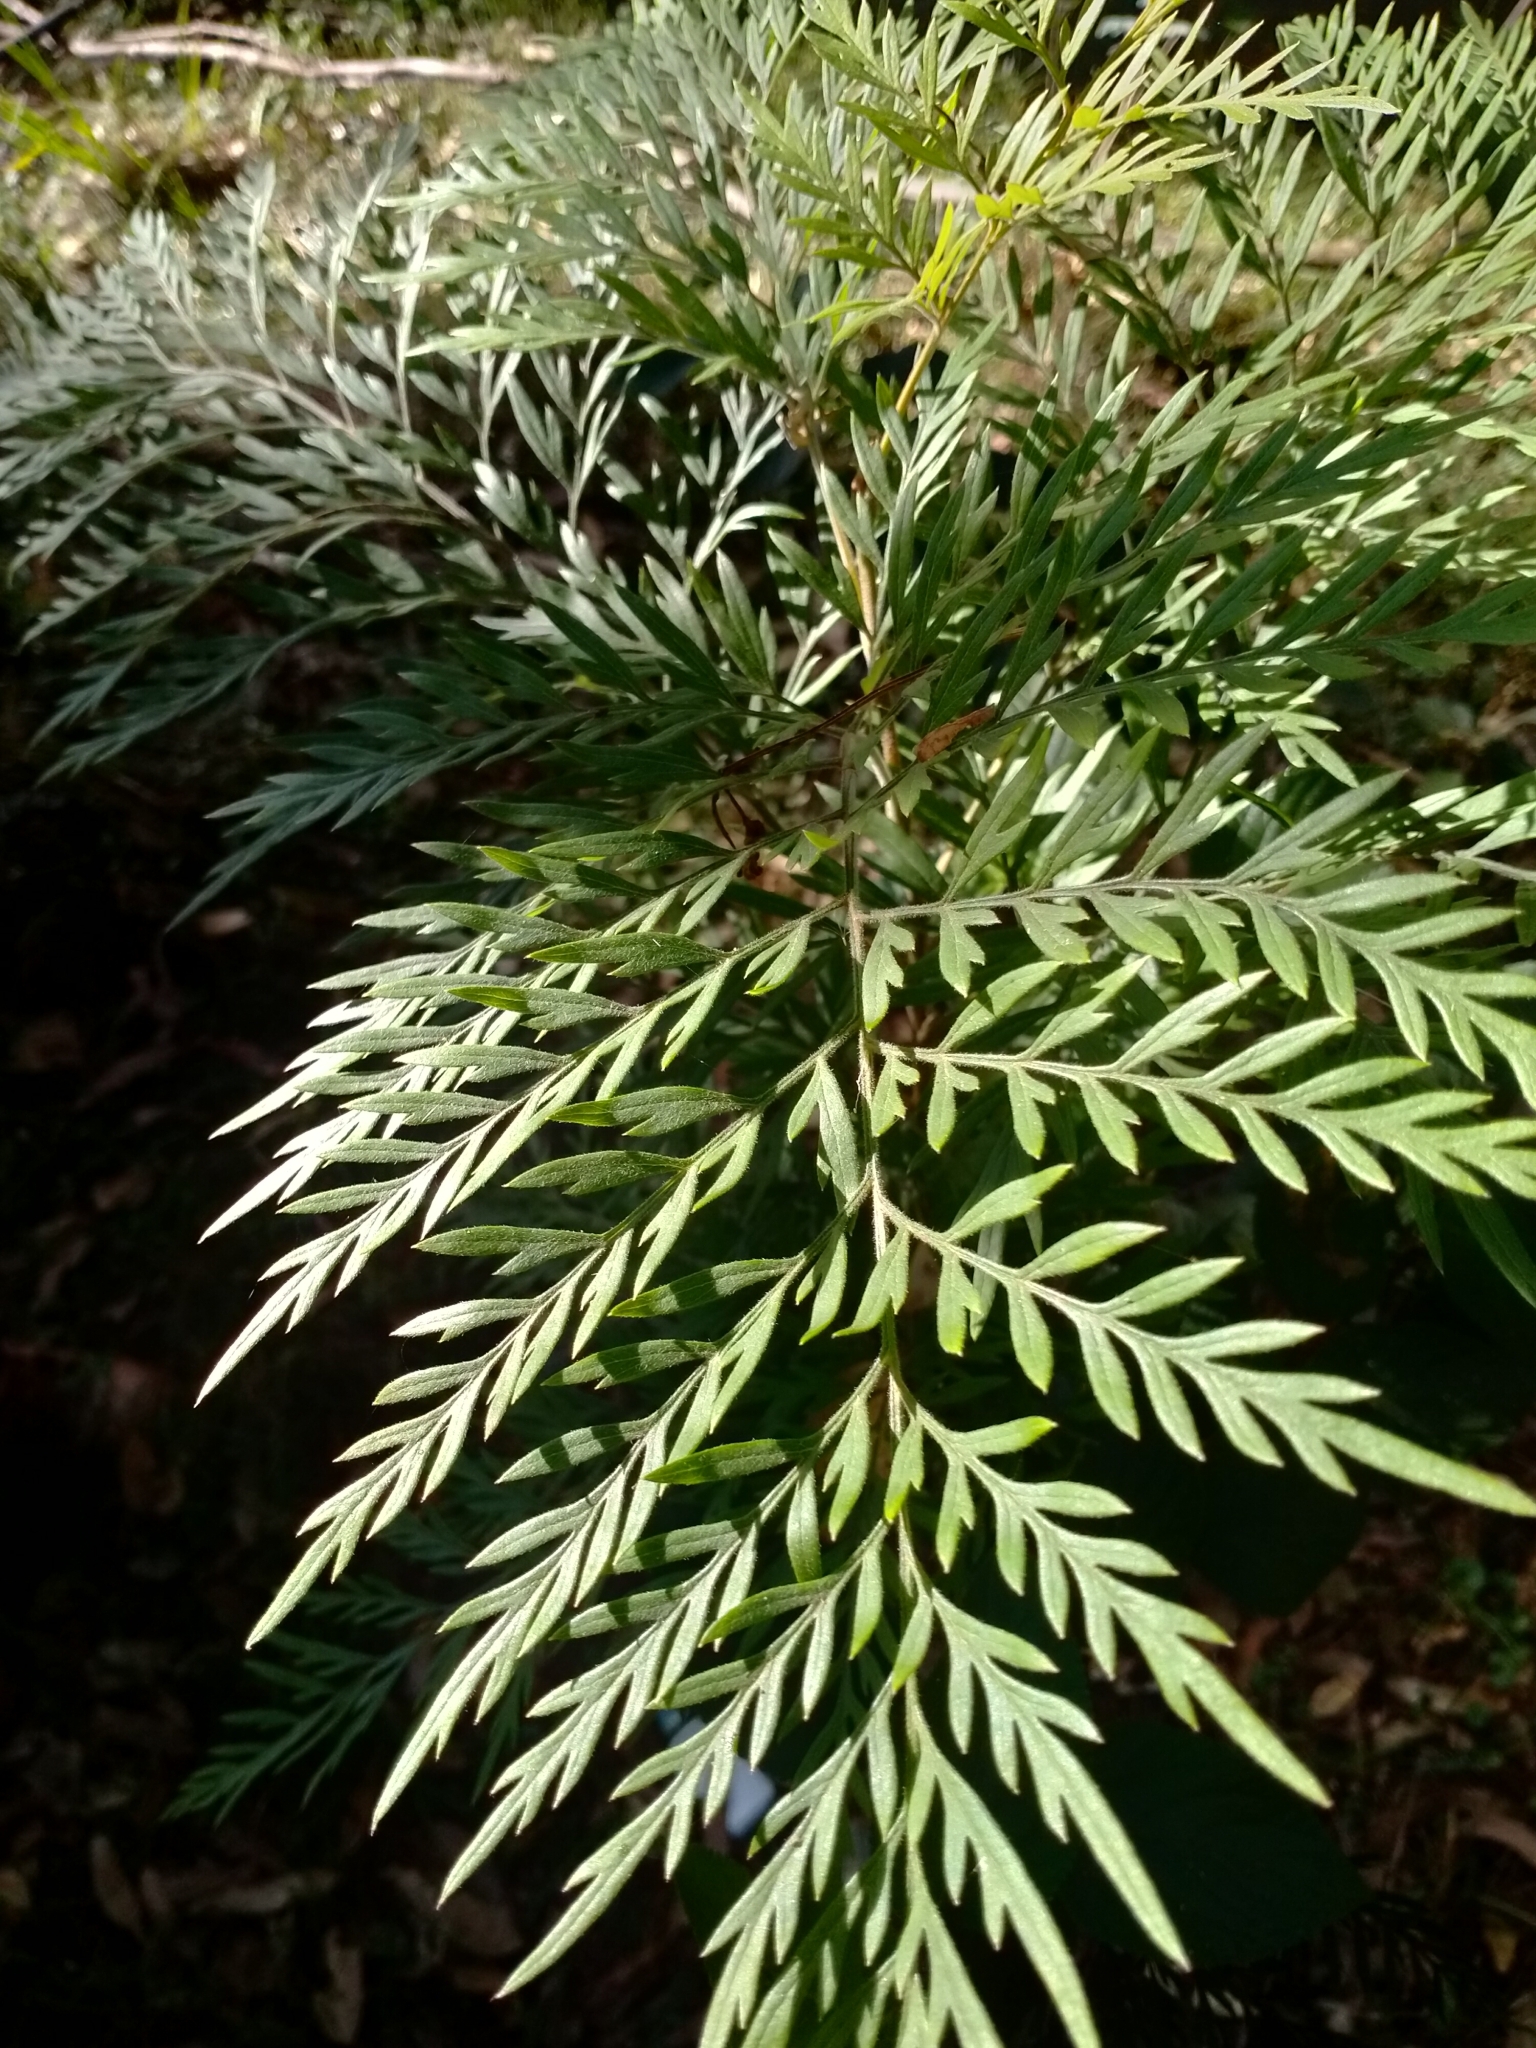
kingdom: Plantae
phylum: Tracheophyta
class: Magnoliopsida
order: Proteales
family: Proteaceae
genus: Grevillea
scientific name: Grevillea robusta
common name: Silkoak
